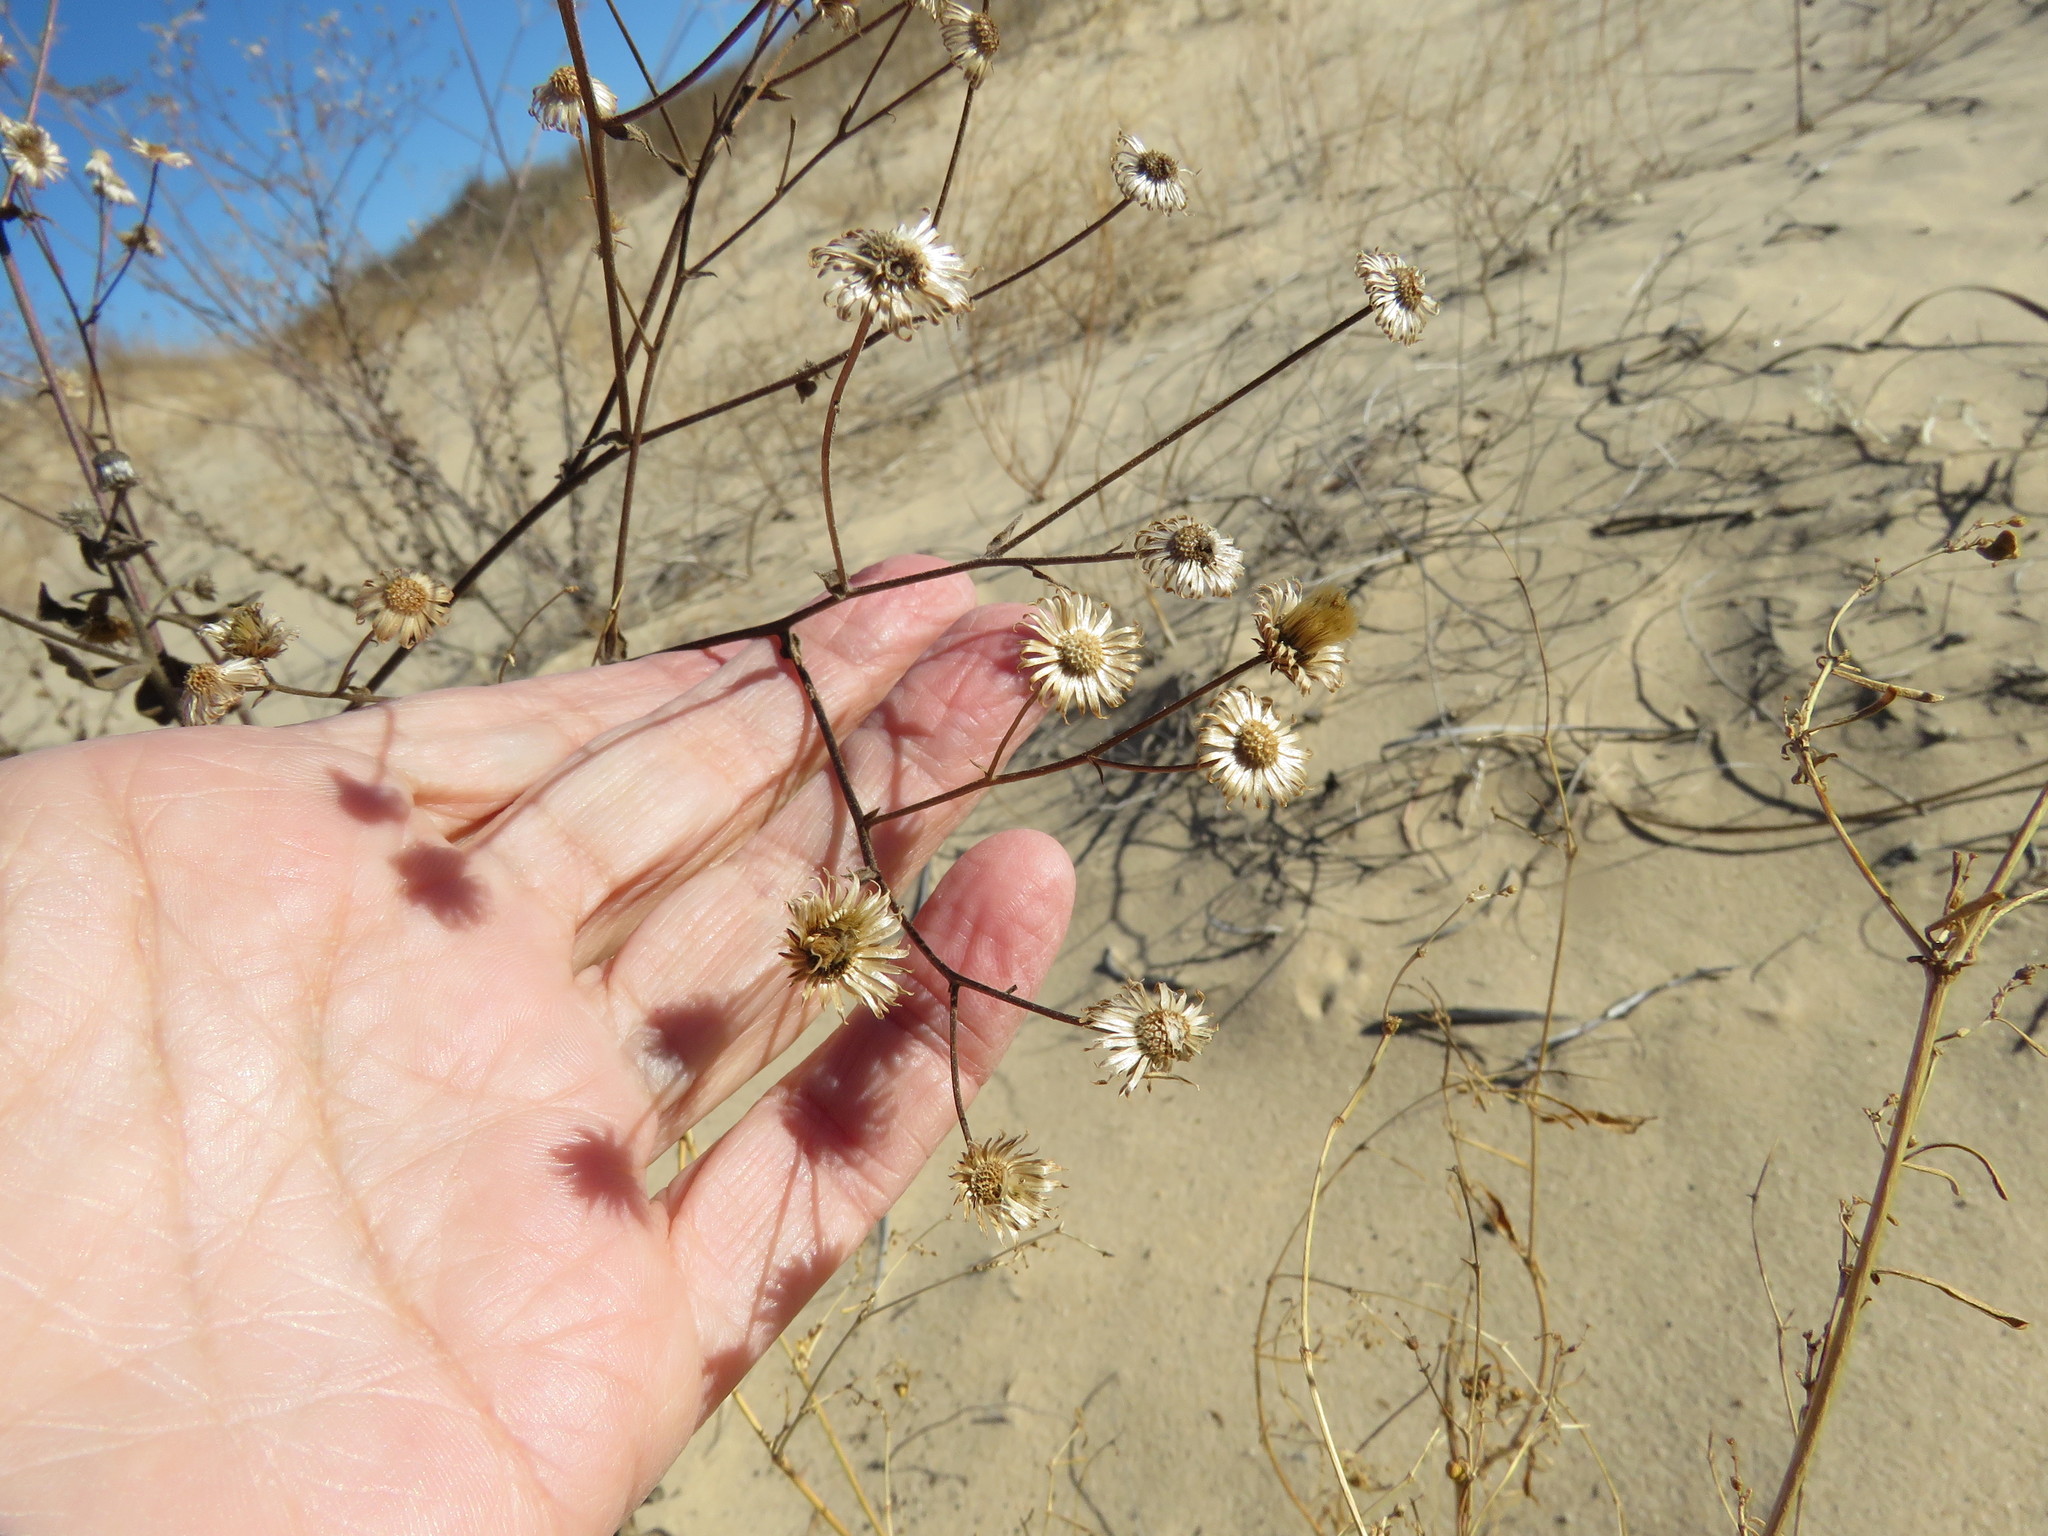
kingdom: Plantae
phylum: Tracheophyta
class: Magnoliopsida
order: Asterales
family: Asteraceae
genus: Heterotheca
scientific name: Heterotheca subaxillaris
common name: Camphorweed
